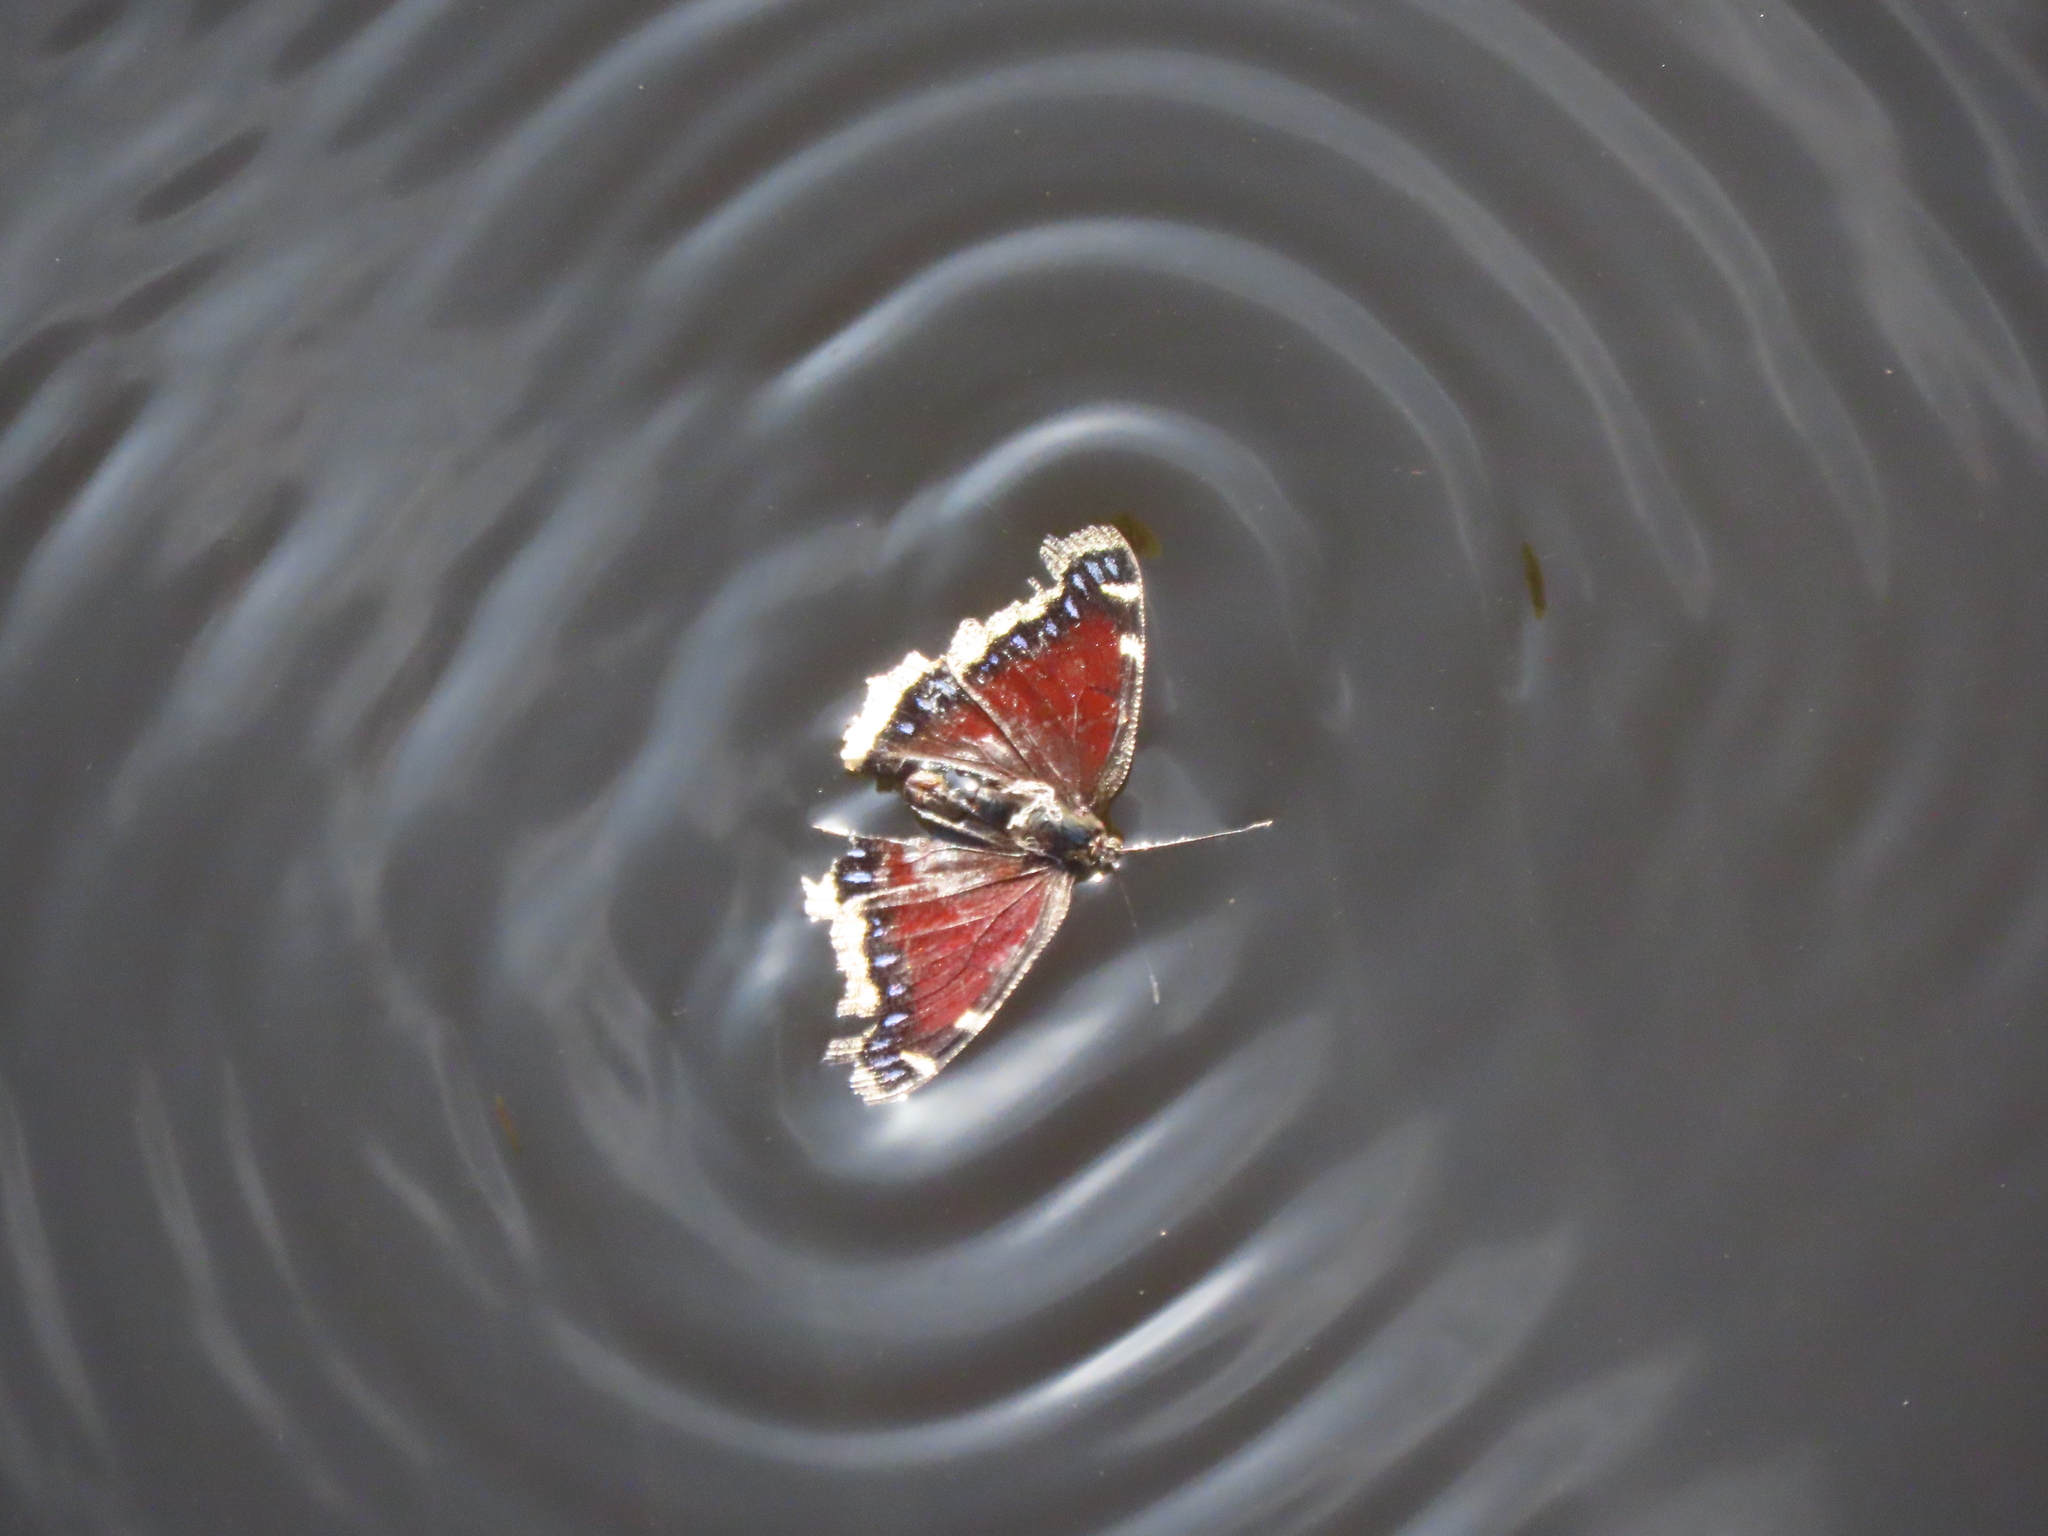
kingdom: Animalia
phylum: Arthropoda
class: Insecta
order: Lepidoptera
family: Nymphalidae
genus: Nymphalis
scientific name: Nymphalis antiopa
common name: Camberwell beauty
